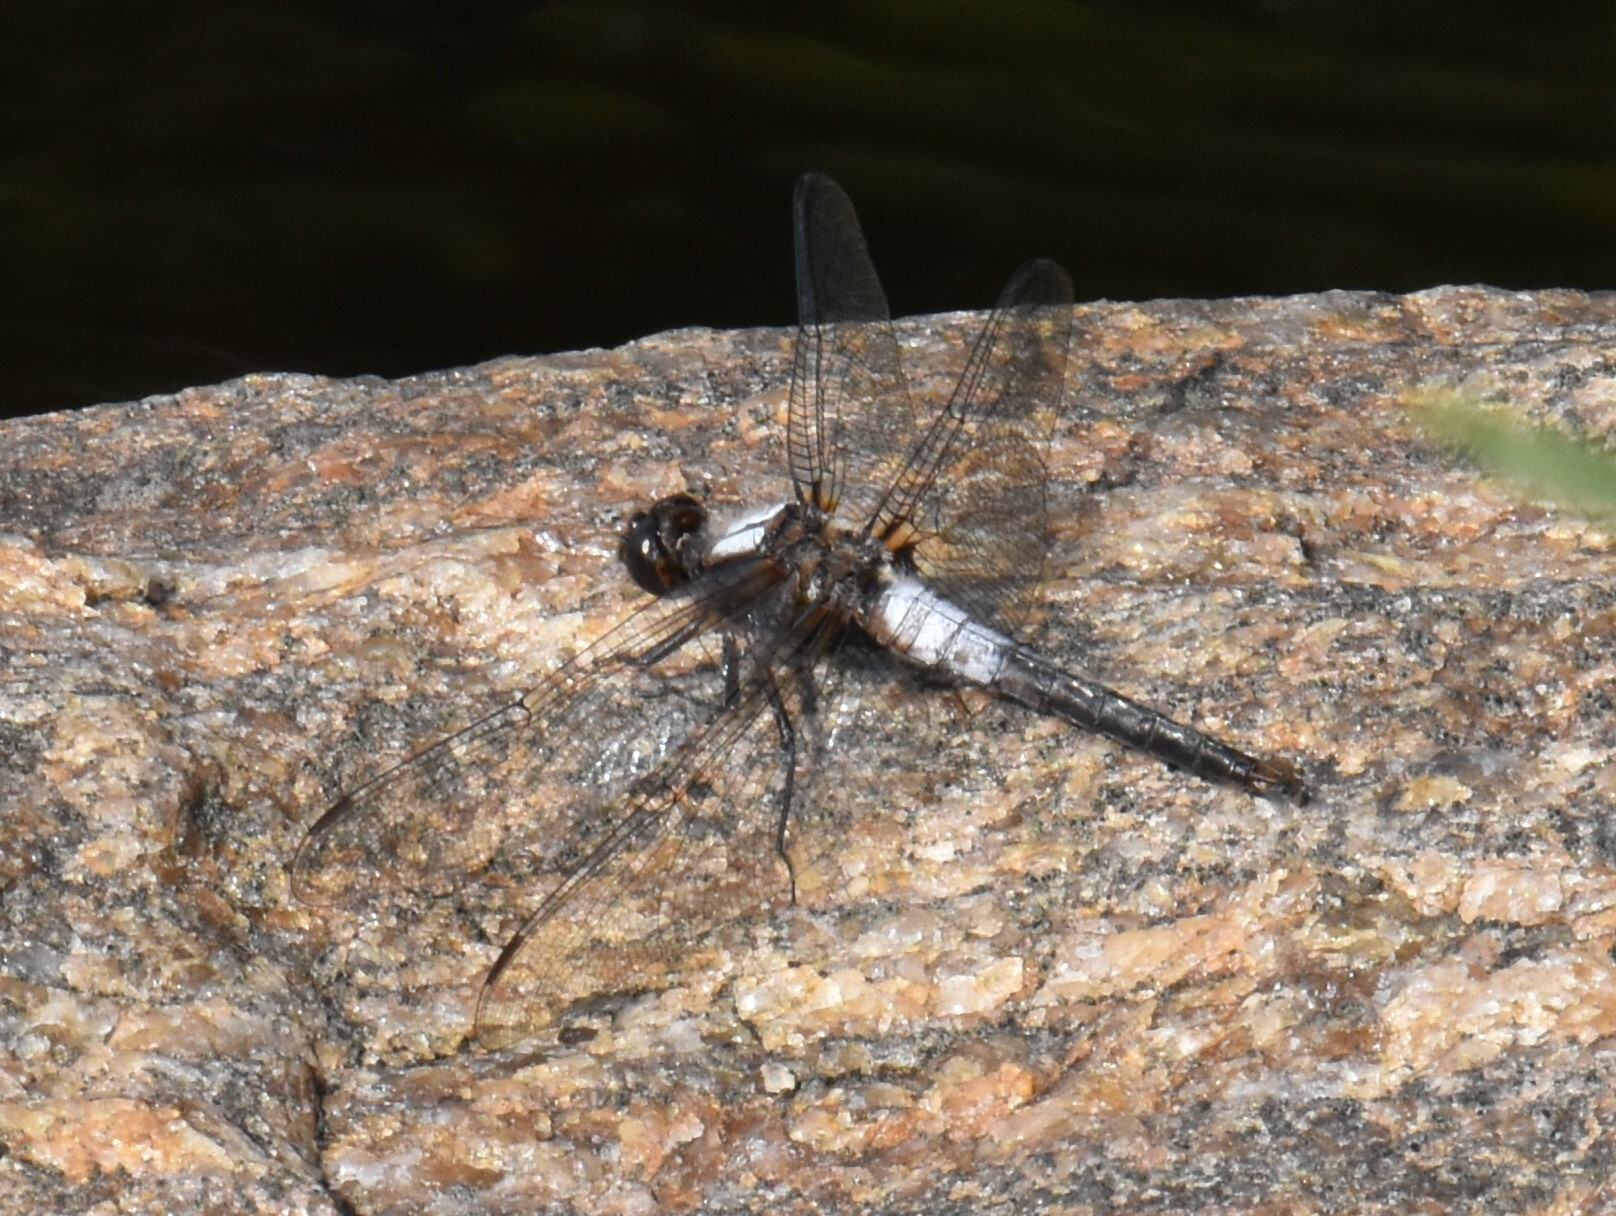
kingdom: Animalia
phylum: Arthropoda
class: Insecta
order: Odonata
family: Libellulidae
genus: Ladona
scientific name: Ladona julia
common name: Chalk-fronted corporal
